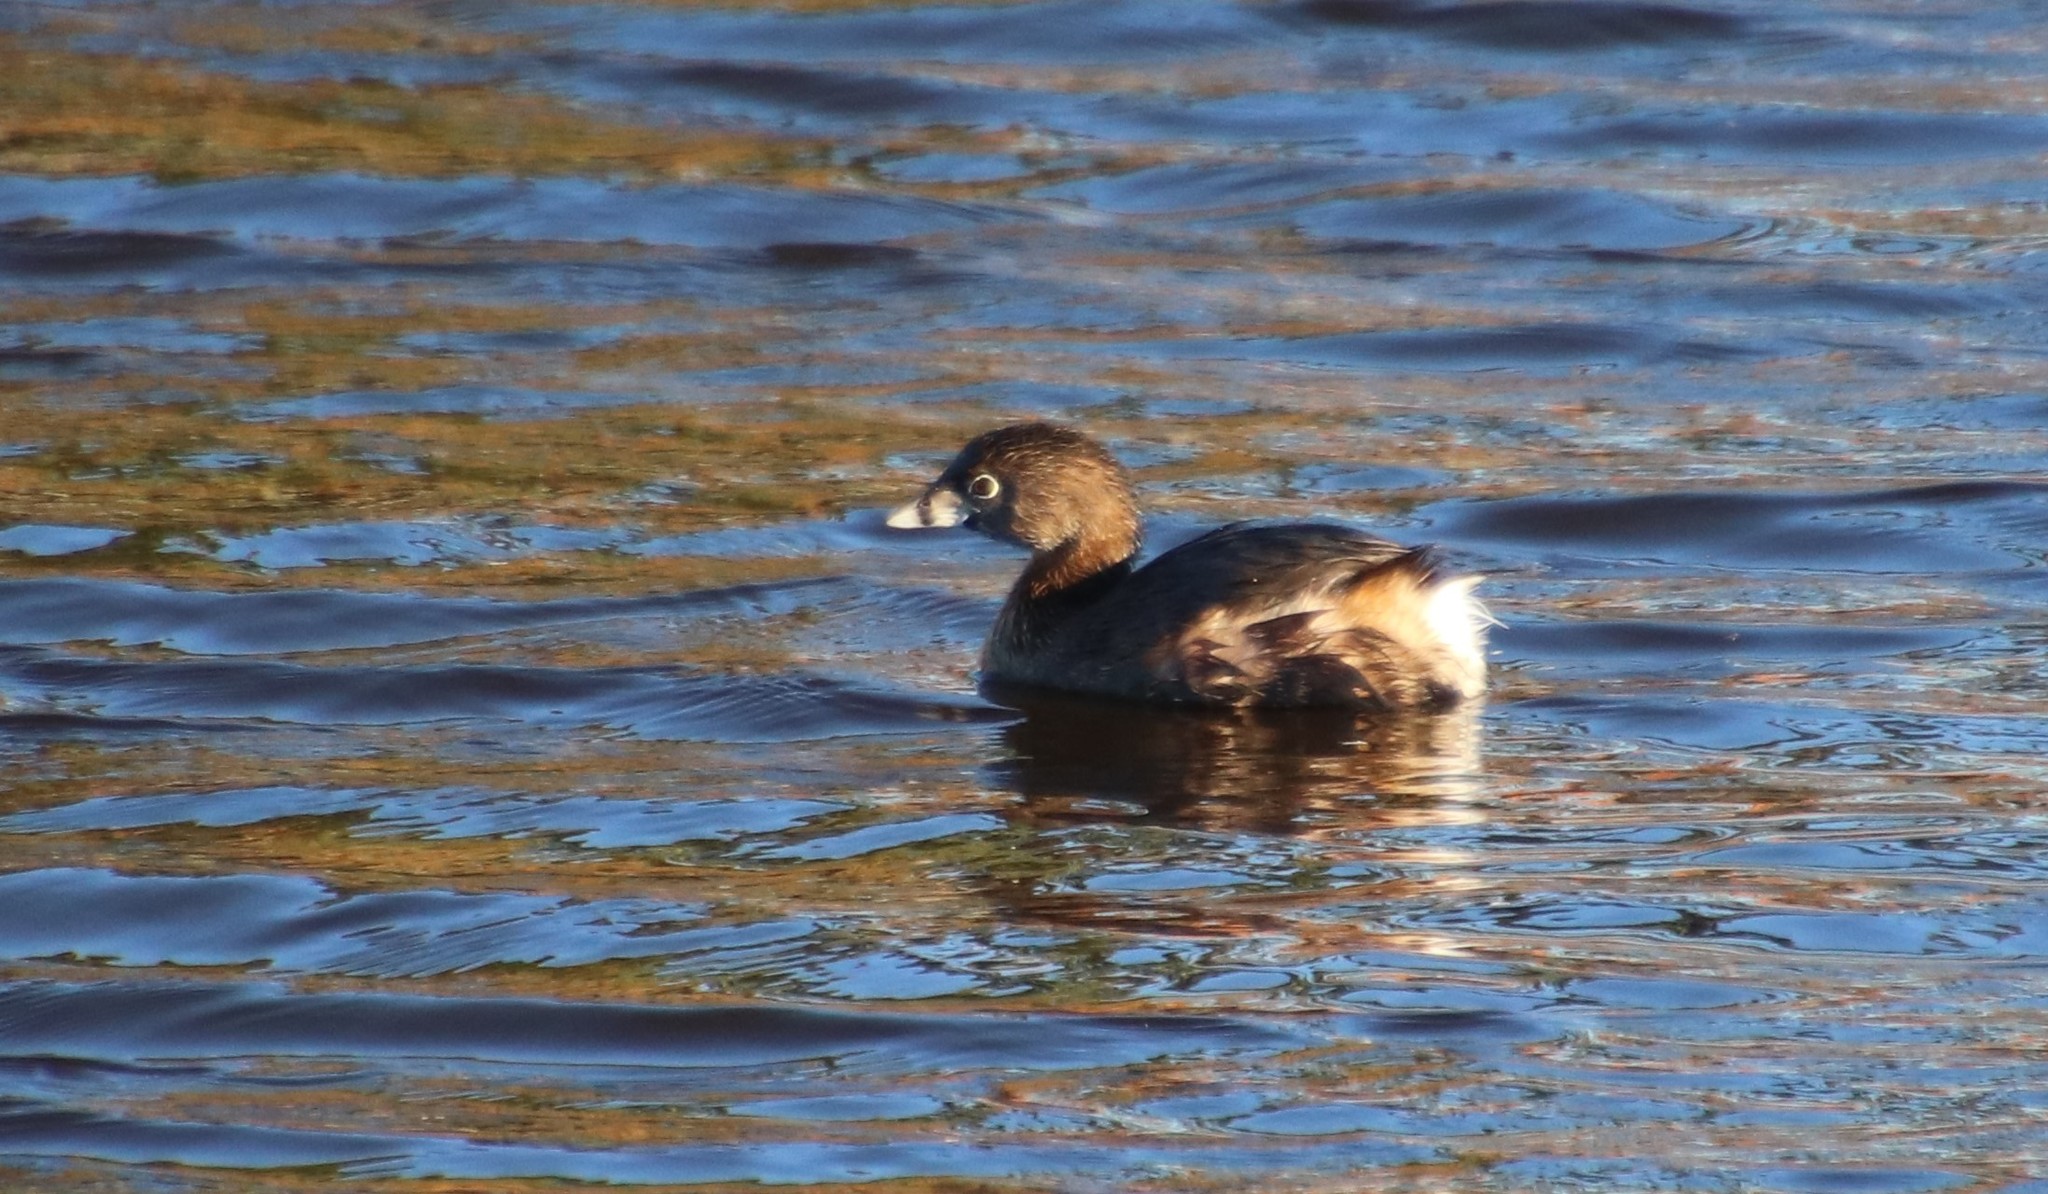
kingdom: Animalia
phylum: Chordata
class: Aves
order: Podicipediformes
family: Podicipedidae
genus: Podilymbus
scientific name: Podilymbus podiceps
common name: Pied-billed grebe
